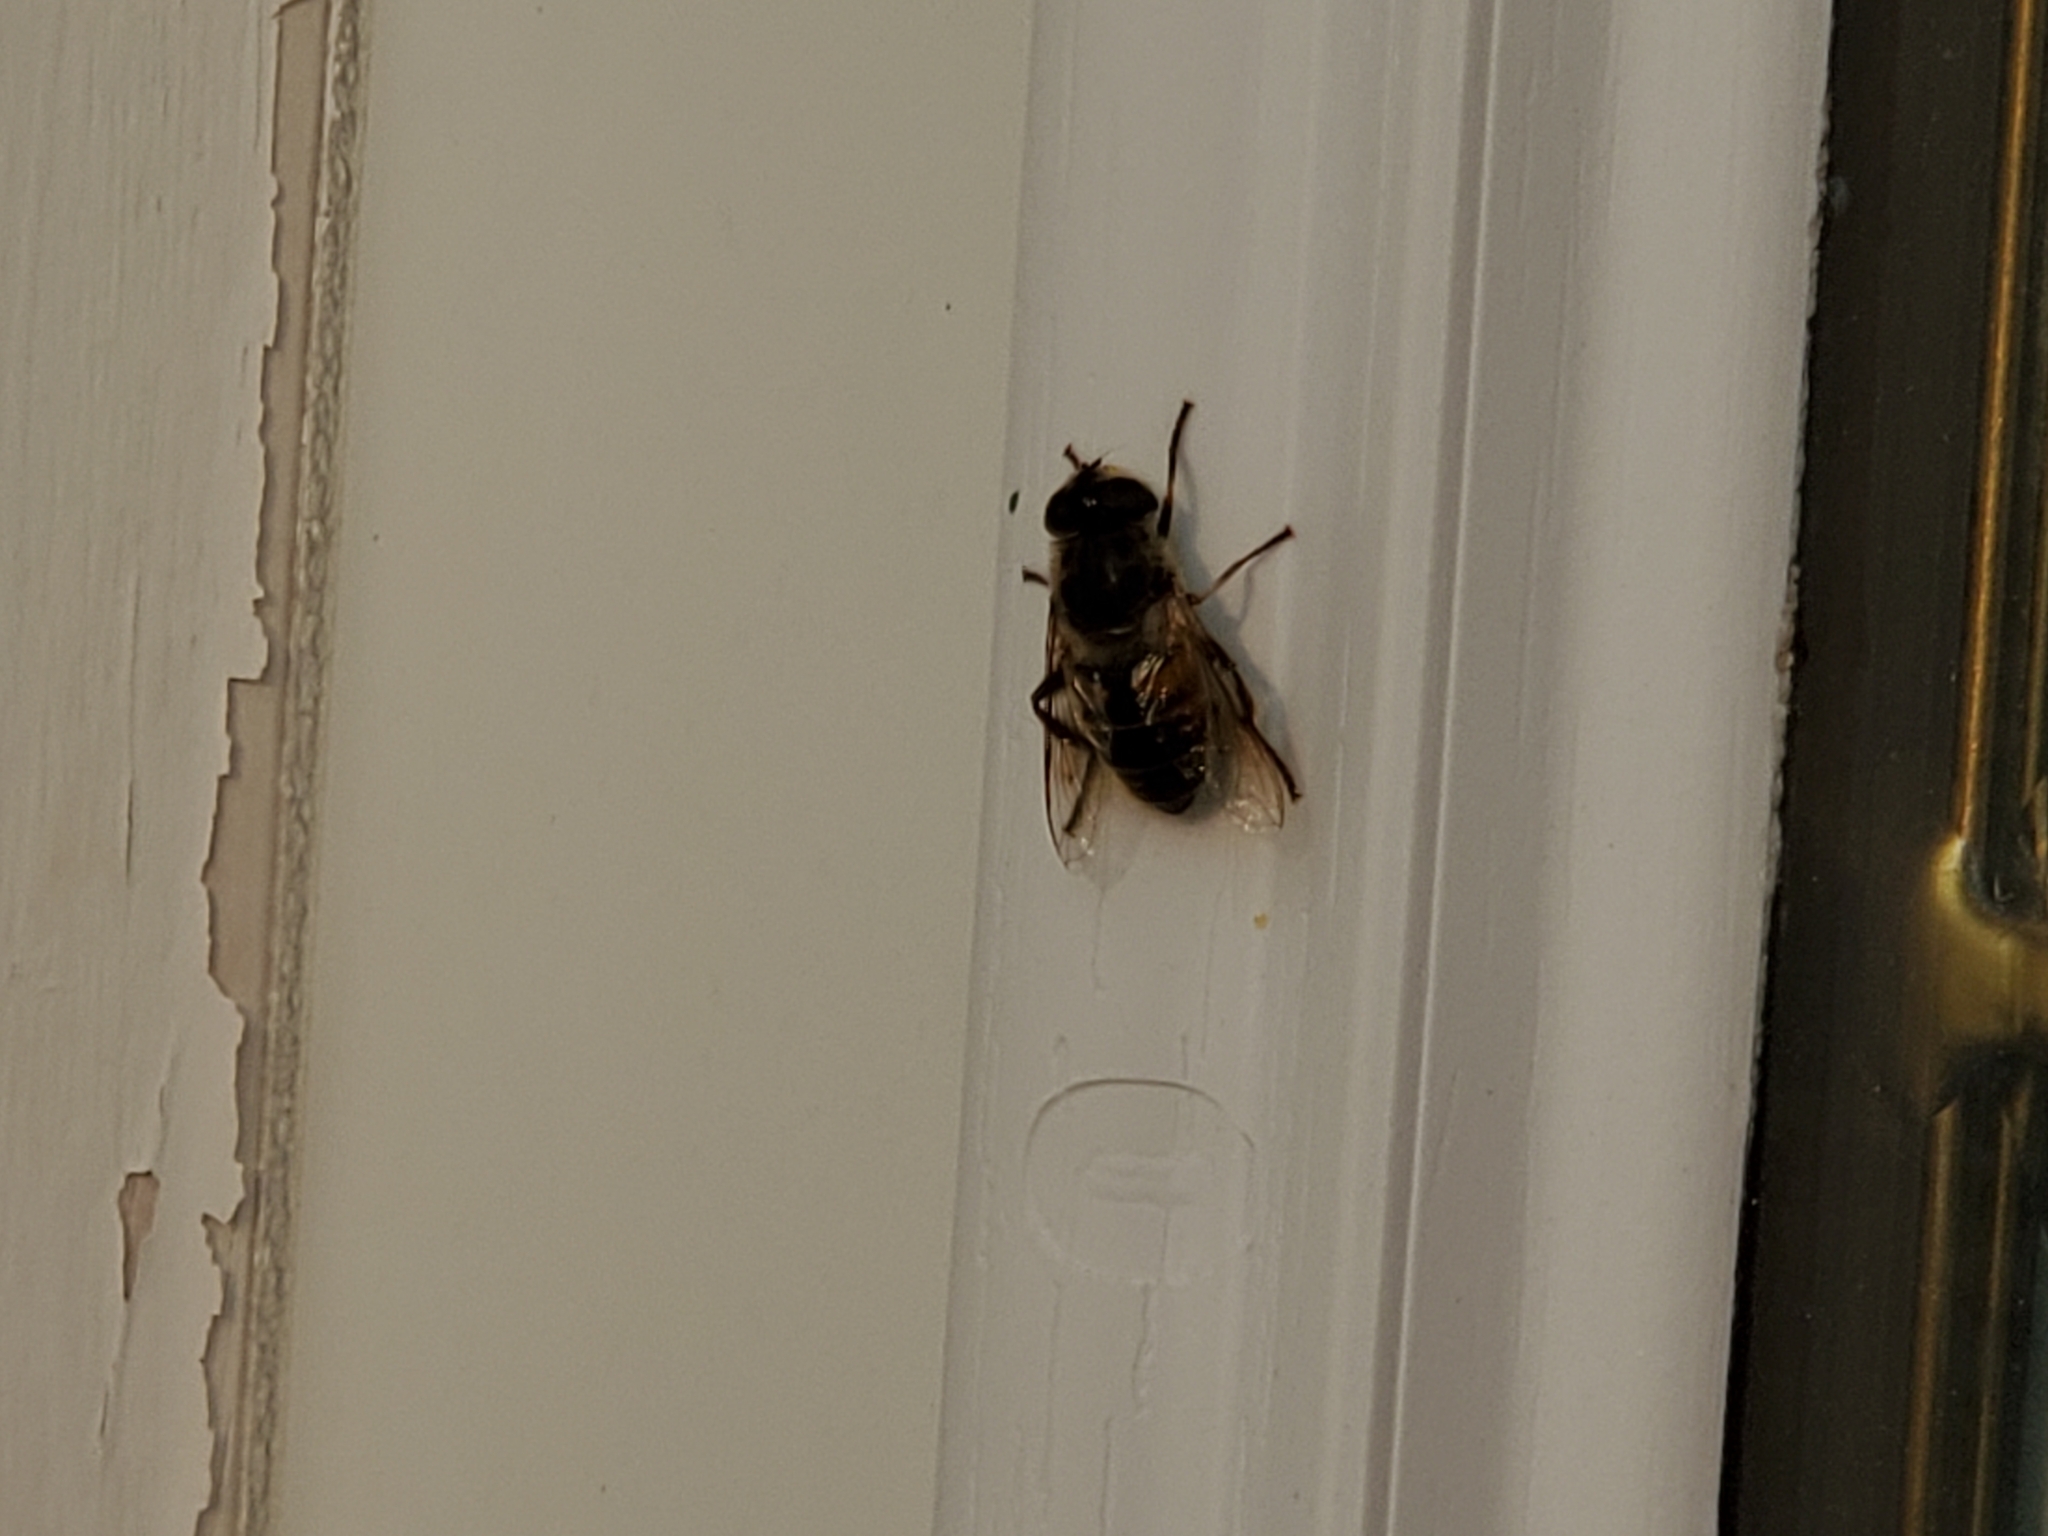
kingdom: Animalia
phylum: Arthropoda
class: Insecta
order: Diptera
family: Syrphidae
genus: Eristalis
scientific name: Eristalis tenax
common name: Drone fly
